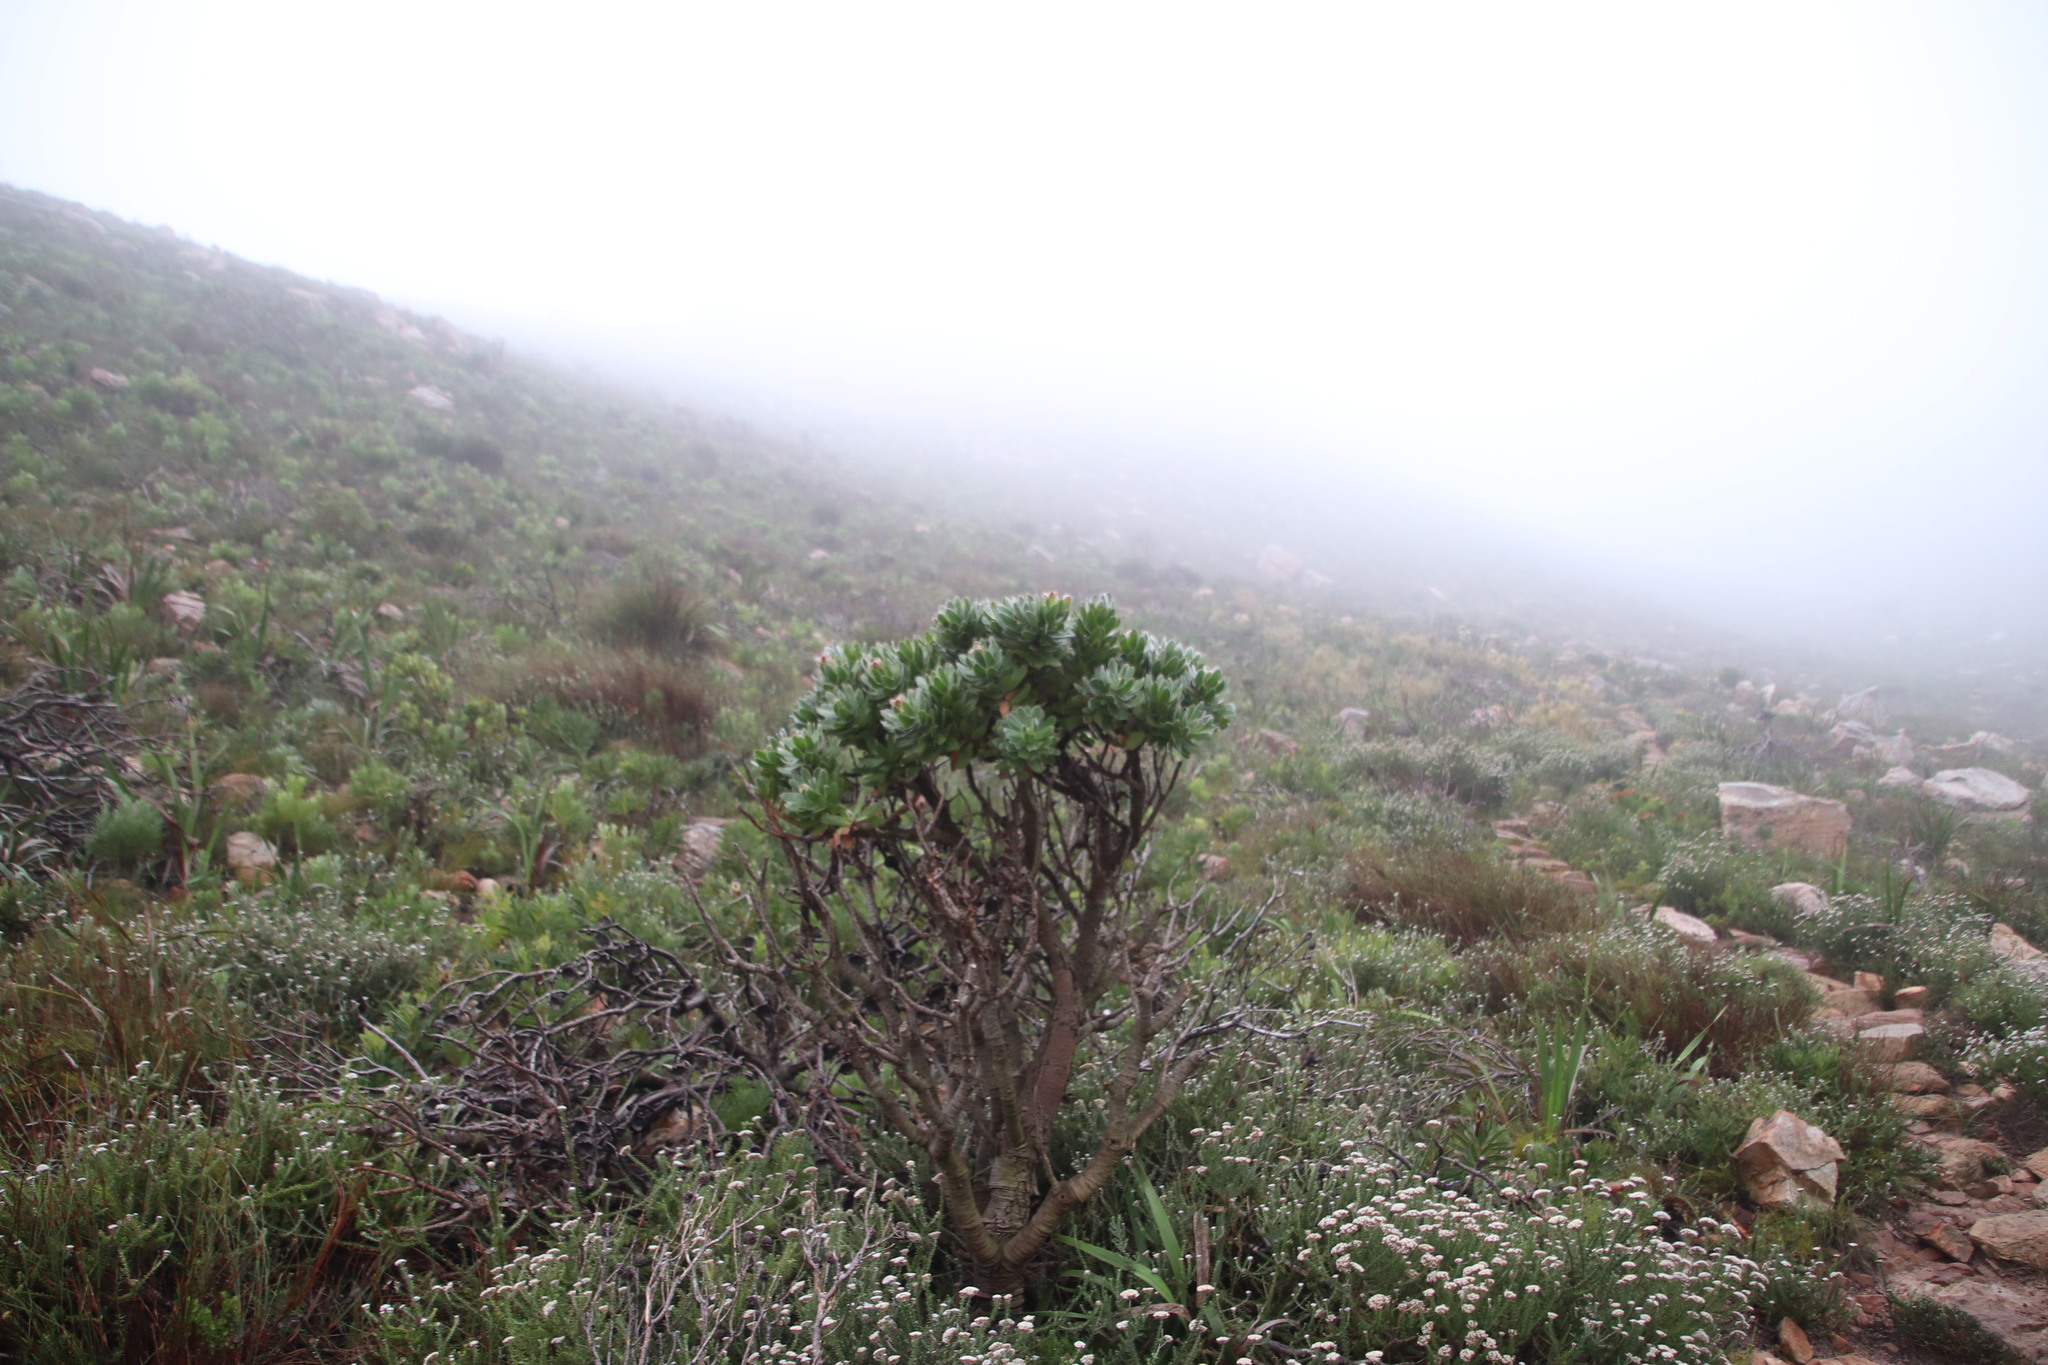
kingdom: Plantae
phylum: Tracheophyta
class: Magnoliopsida
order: Proteales
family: Proteaceae
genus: Leucospermum
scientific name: Leucospermum conocarpodendron
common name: Tree pincushion
